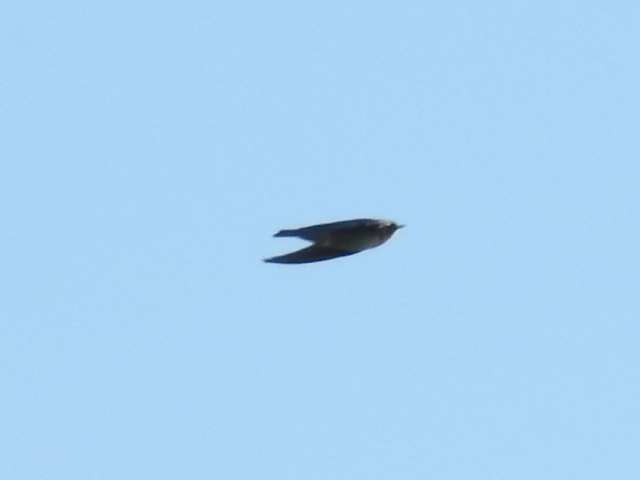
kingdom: Animalia
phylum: Chordata
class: Aves
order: Passeriformes
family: Hirundinidae
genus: Stelgidopteryx
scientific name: Stelgidopteryx serripennis
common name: Northern rough-winged swallow
